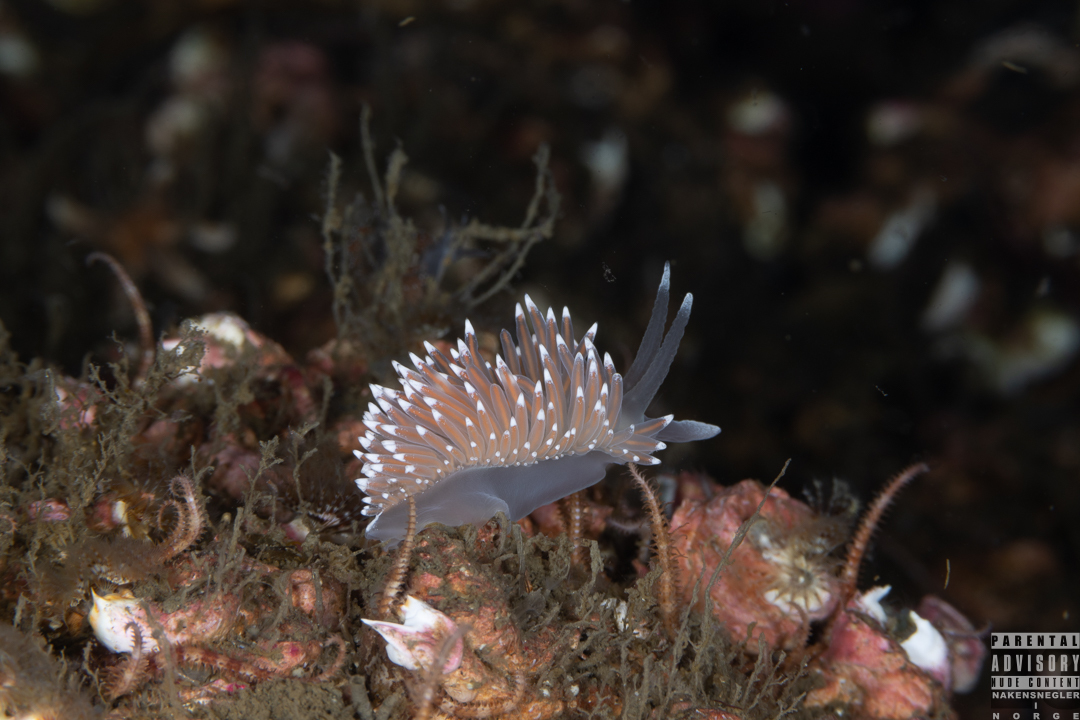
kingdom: Animalia
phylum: Mollusca
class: Gastropoda
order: Nudibranchia
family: Coryphellidae
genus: Coryphella
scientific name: Coryphella nobilis
